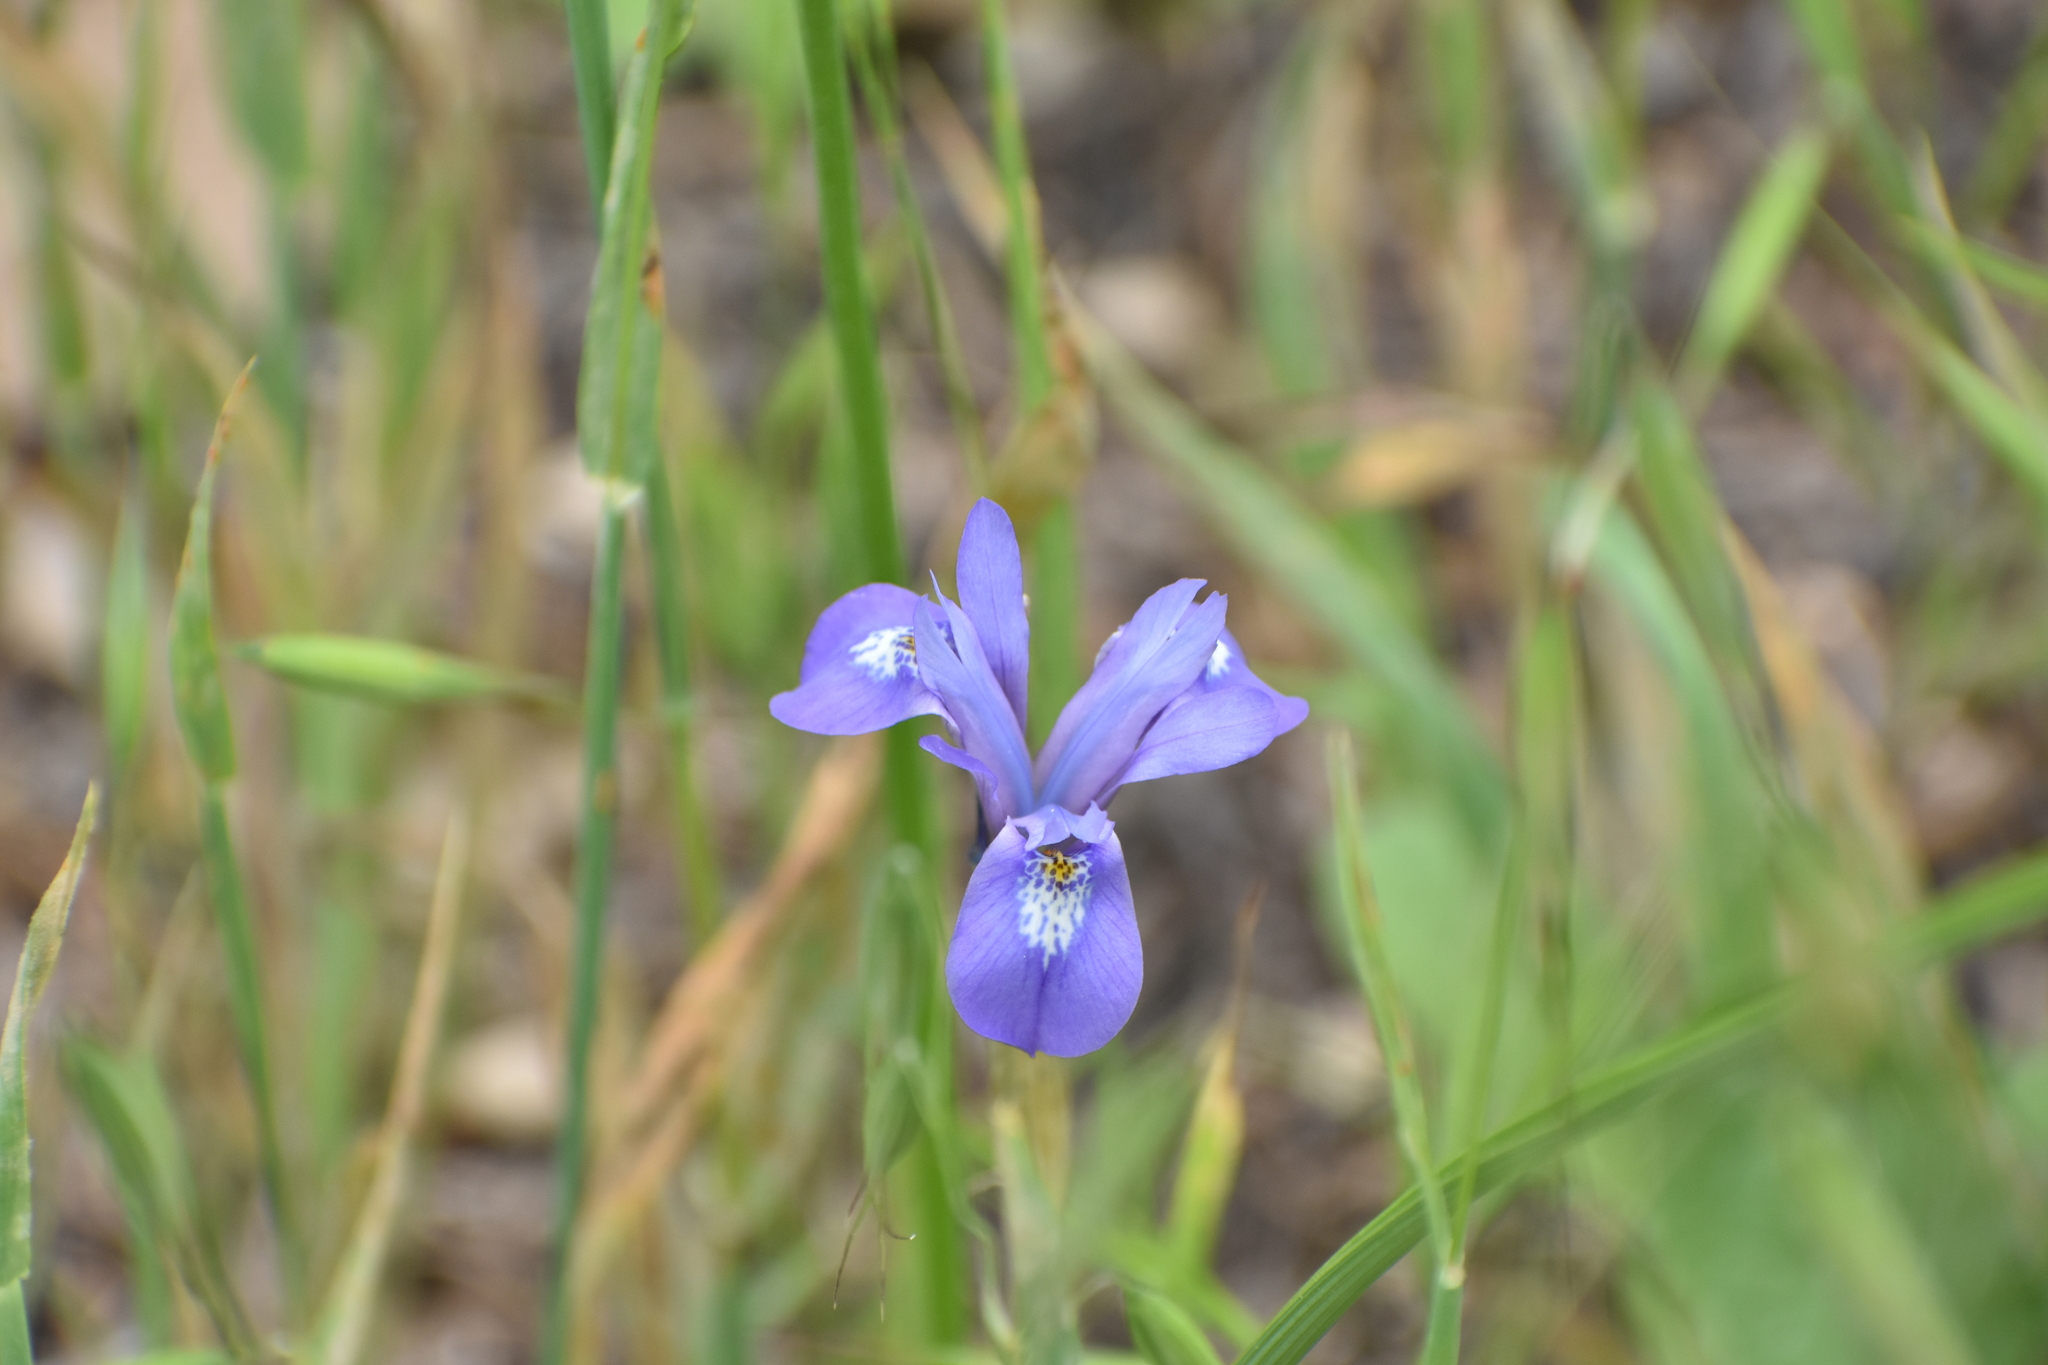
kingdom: Plantae
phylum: Tracheophyta
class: Liliopsida
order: Asparagales
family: Iridaceae
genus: Moraea
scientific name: Moraea sisyrinchium
